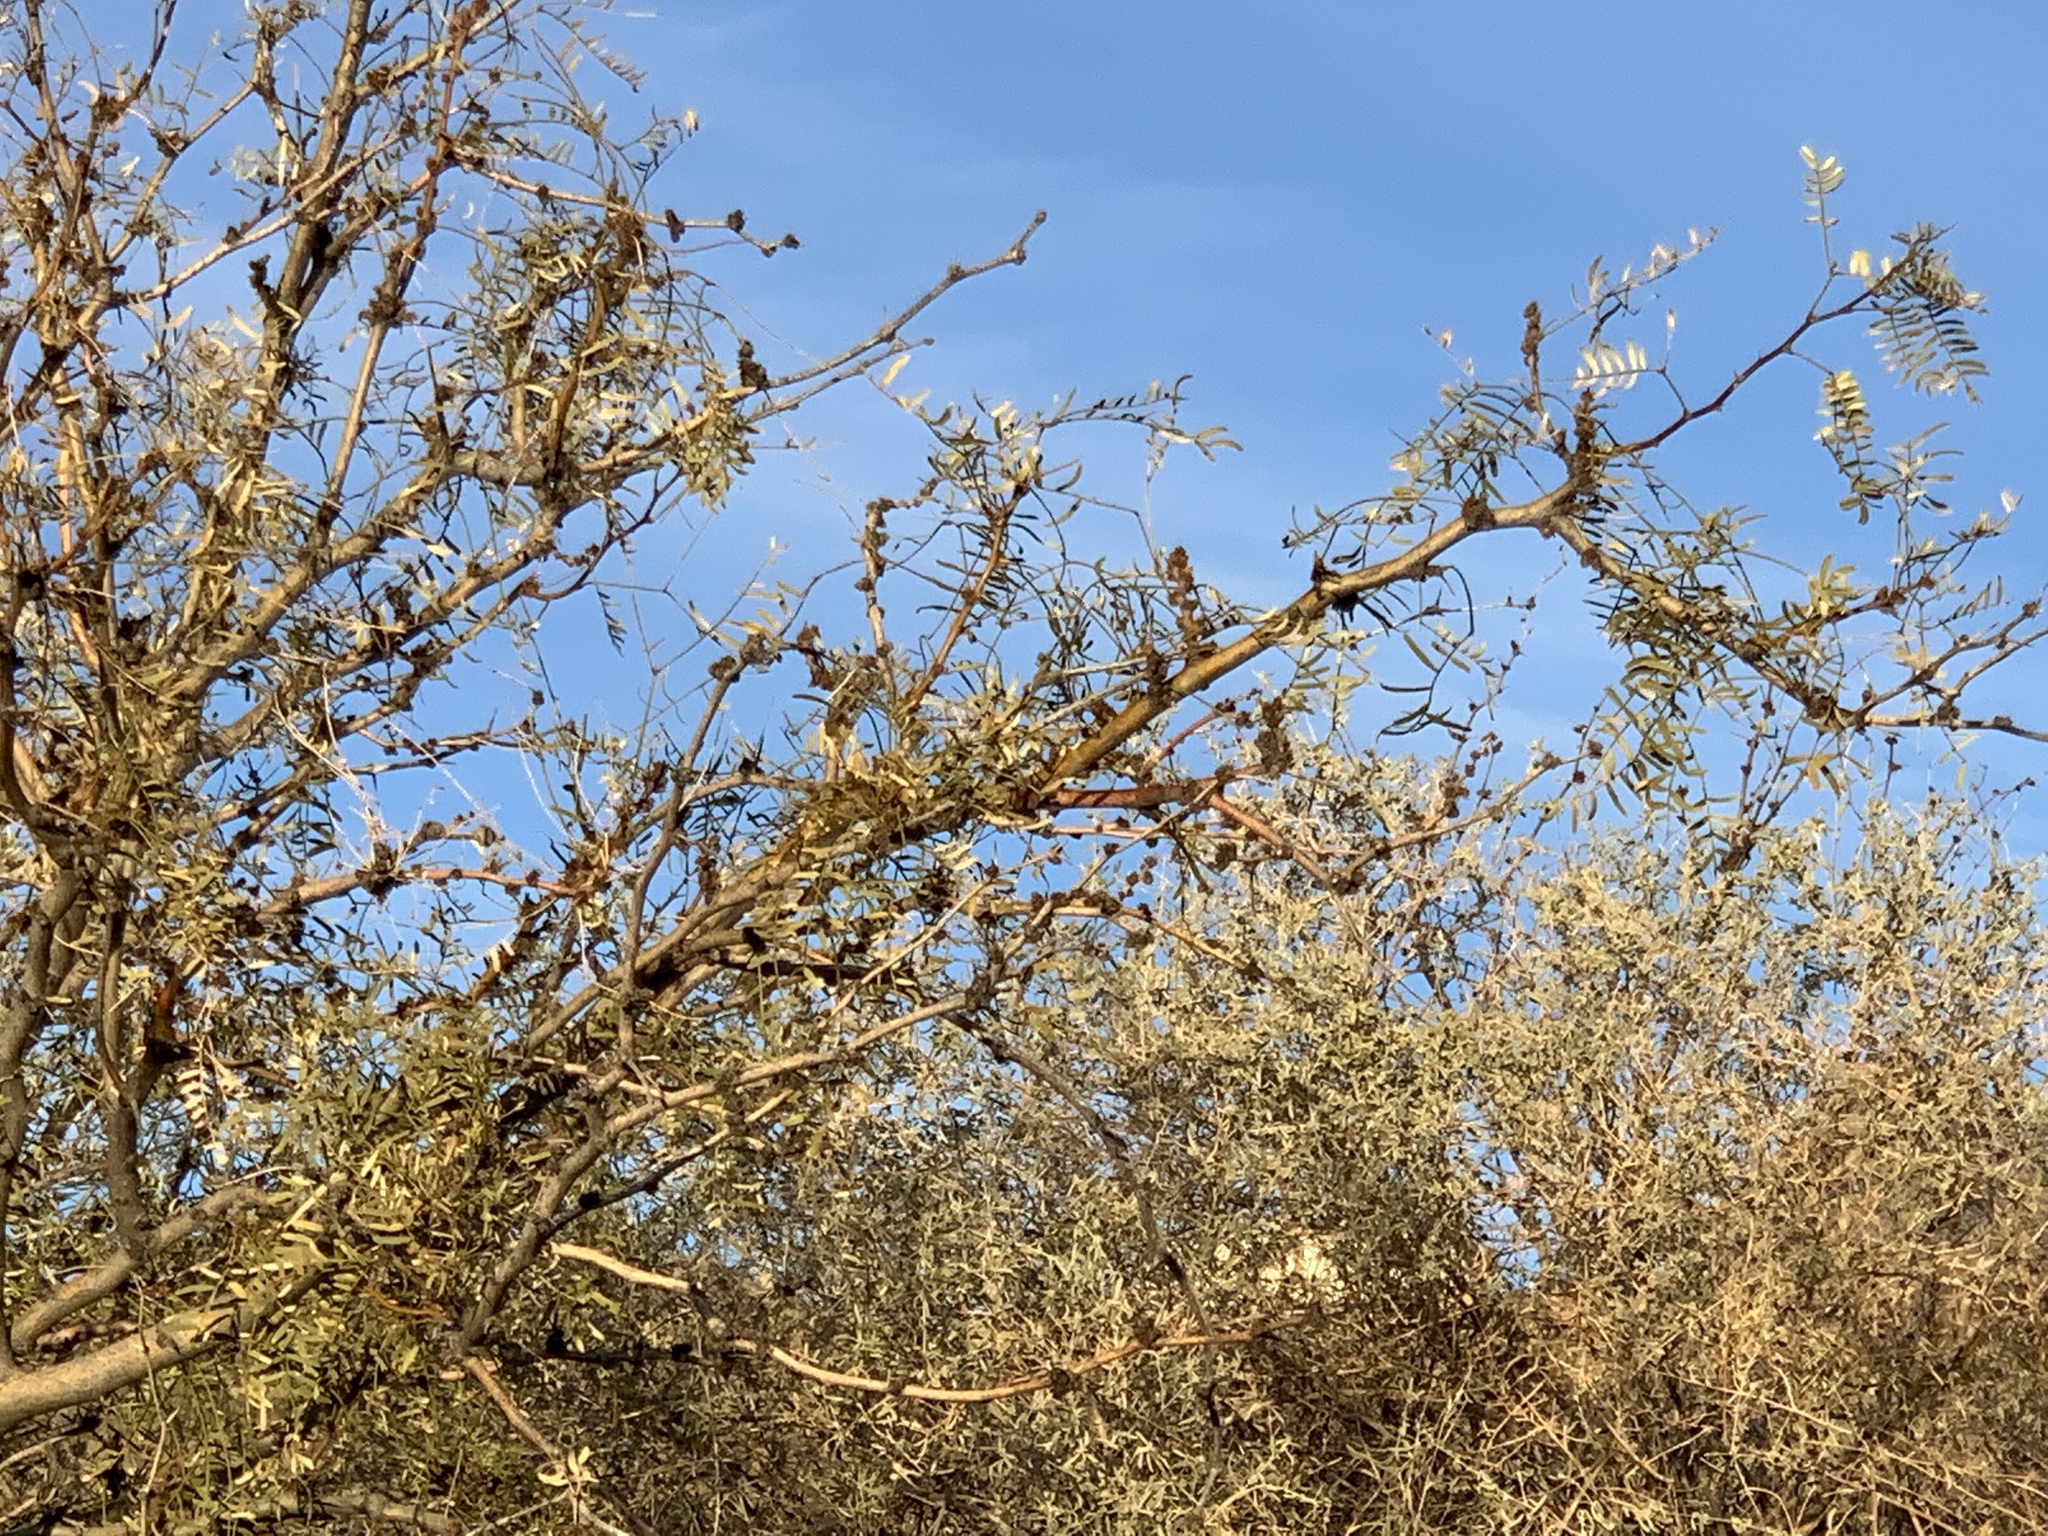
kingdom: Plantae
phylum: Tracheophyta
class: Magnoliopsida
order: Fabales
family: Fabaceae
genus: Prosopis
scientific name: Prosopis glandulosa
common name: Honey mesquite
